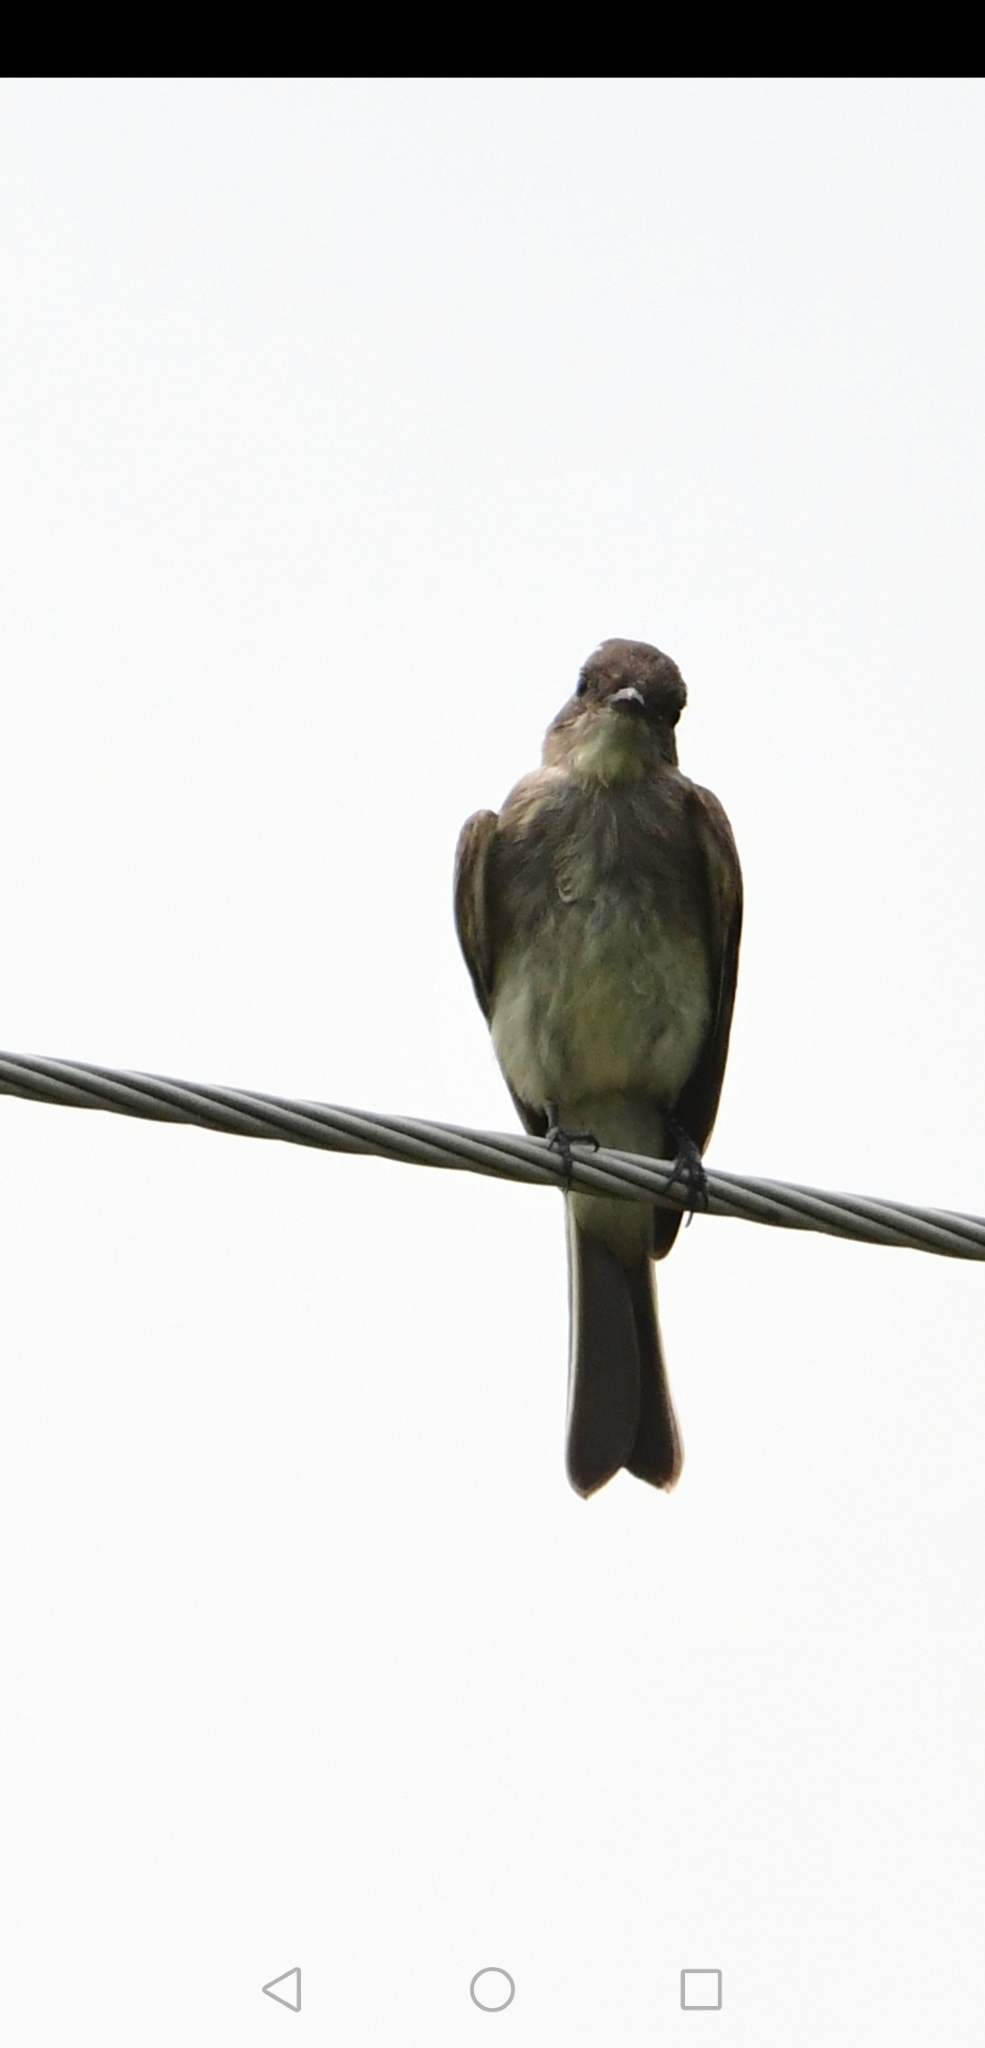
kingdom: Animalia
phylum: Chordata
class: Aves
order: Passeriformes
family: Tyrannidae
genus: Sayornis
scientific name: Sayornis phoebe
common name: Eastern phoebe
